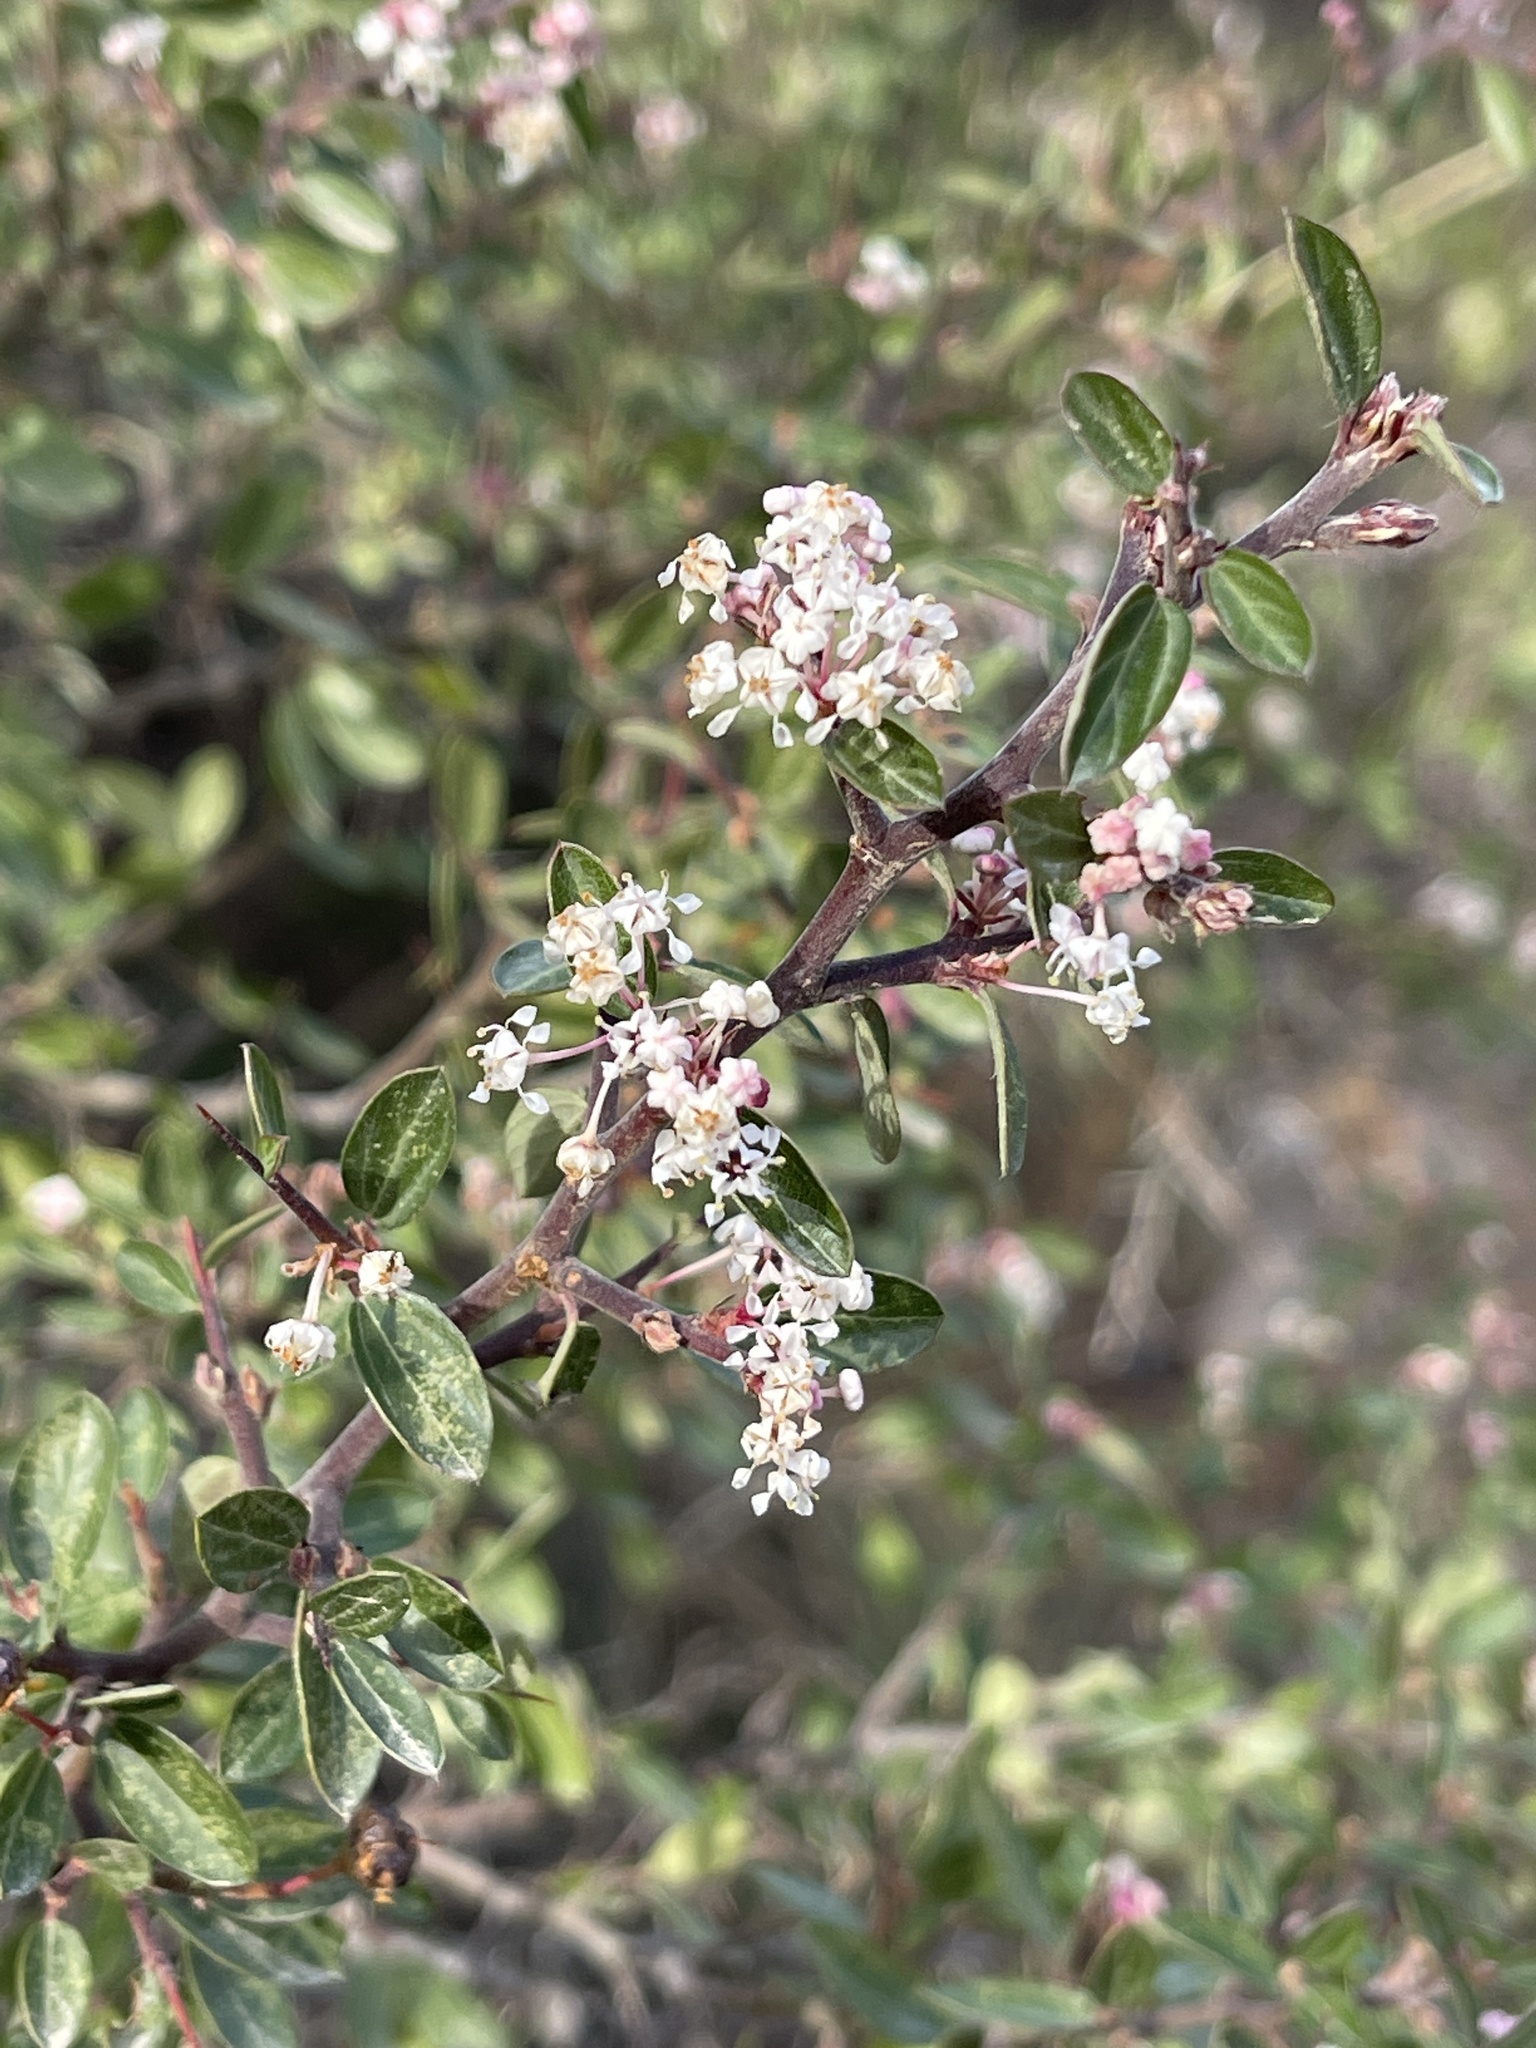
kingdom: Plantae
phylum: Tracheophyta
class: Magnoliopsida
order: Rosales
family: Rhamnaceae
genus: Ceanothus
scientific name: Ceanothus fendleri
